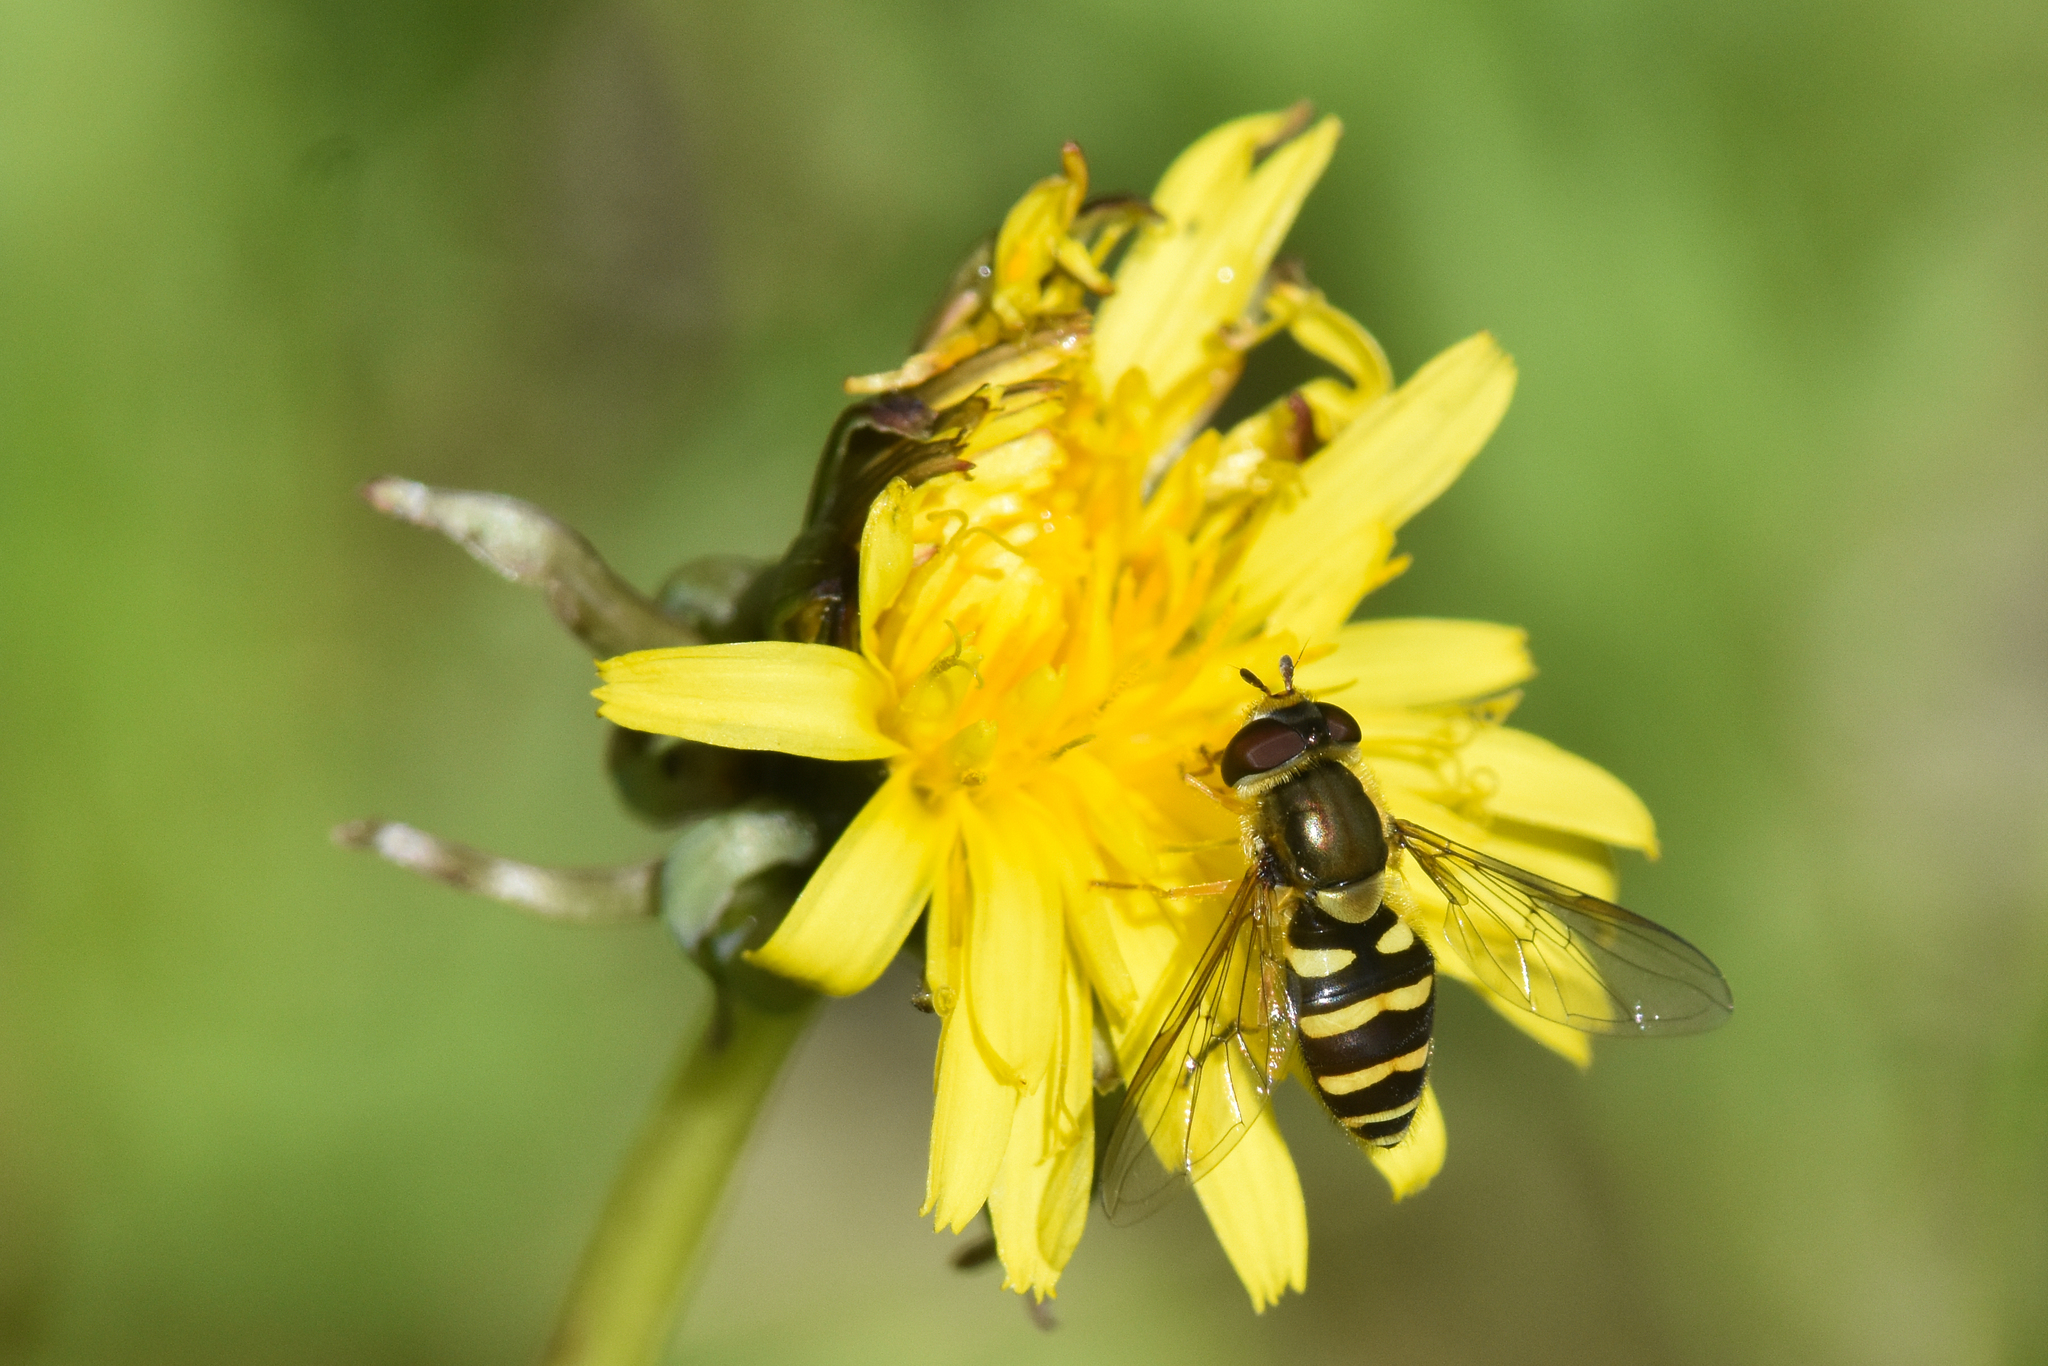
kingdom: Animalia
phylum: Arthropoda
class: Insecta
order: Diptera
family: Syrphidae
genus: Syrphus
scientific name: Syrphus opinator
